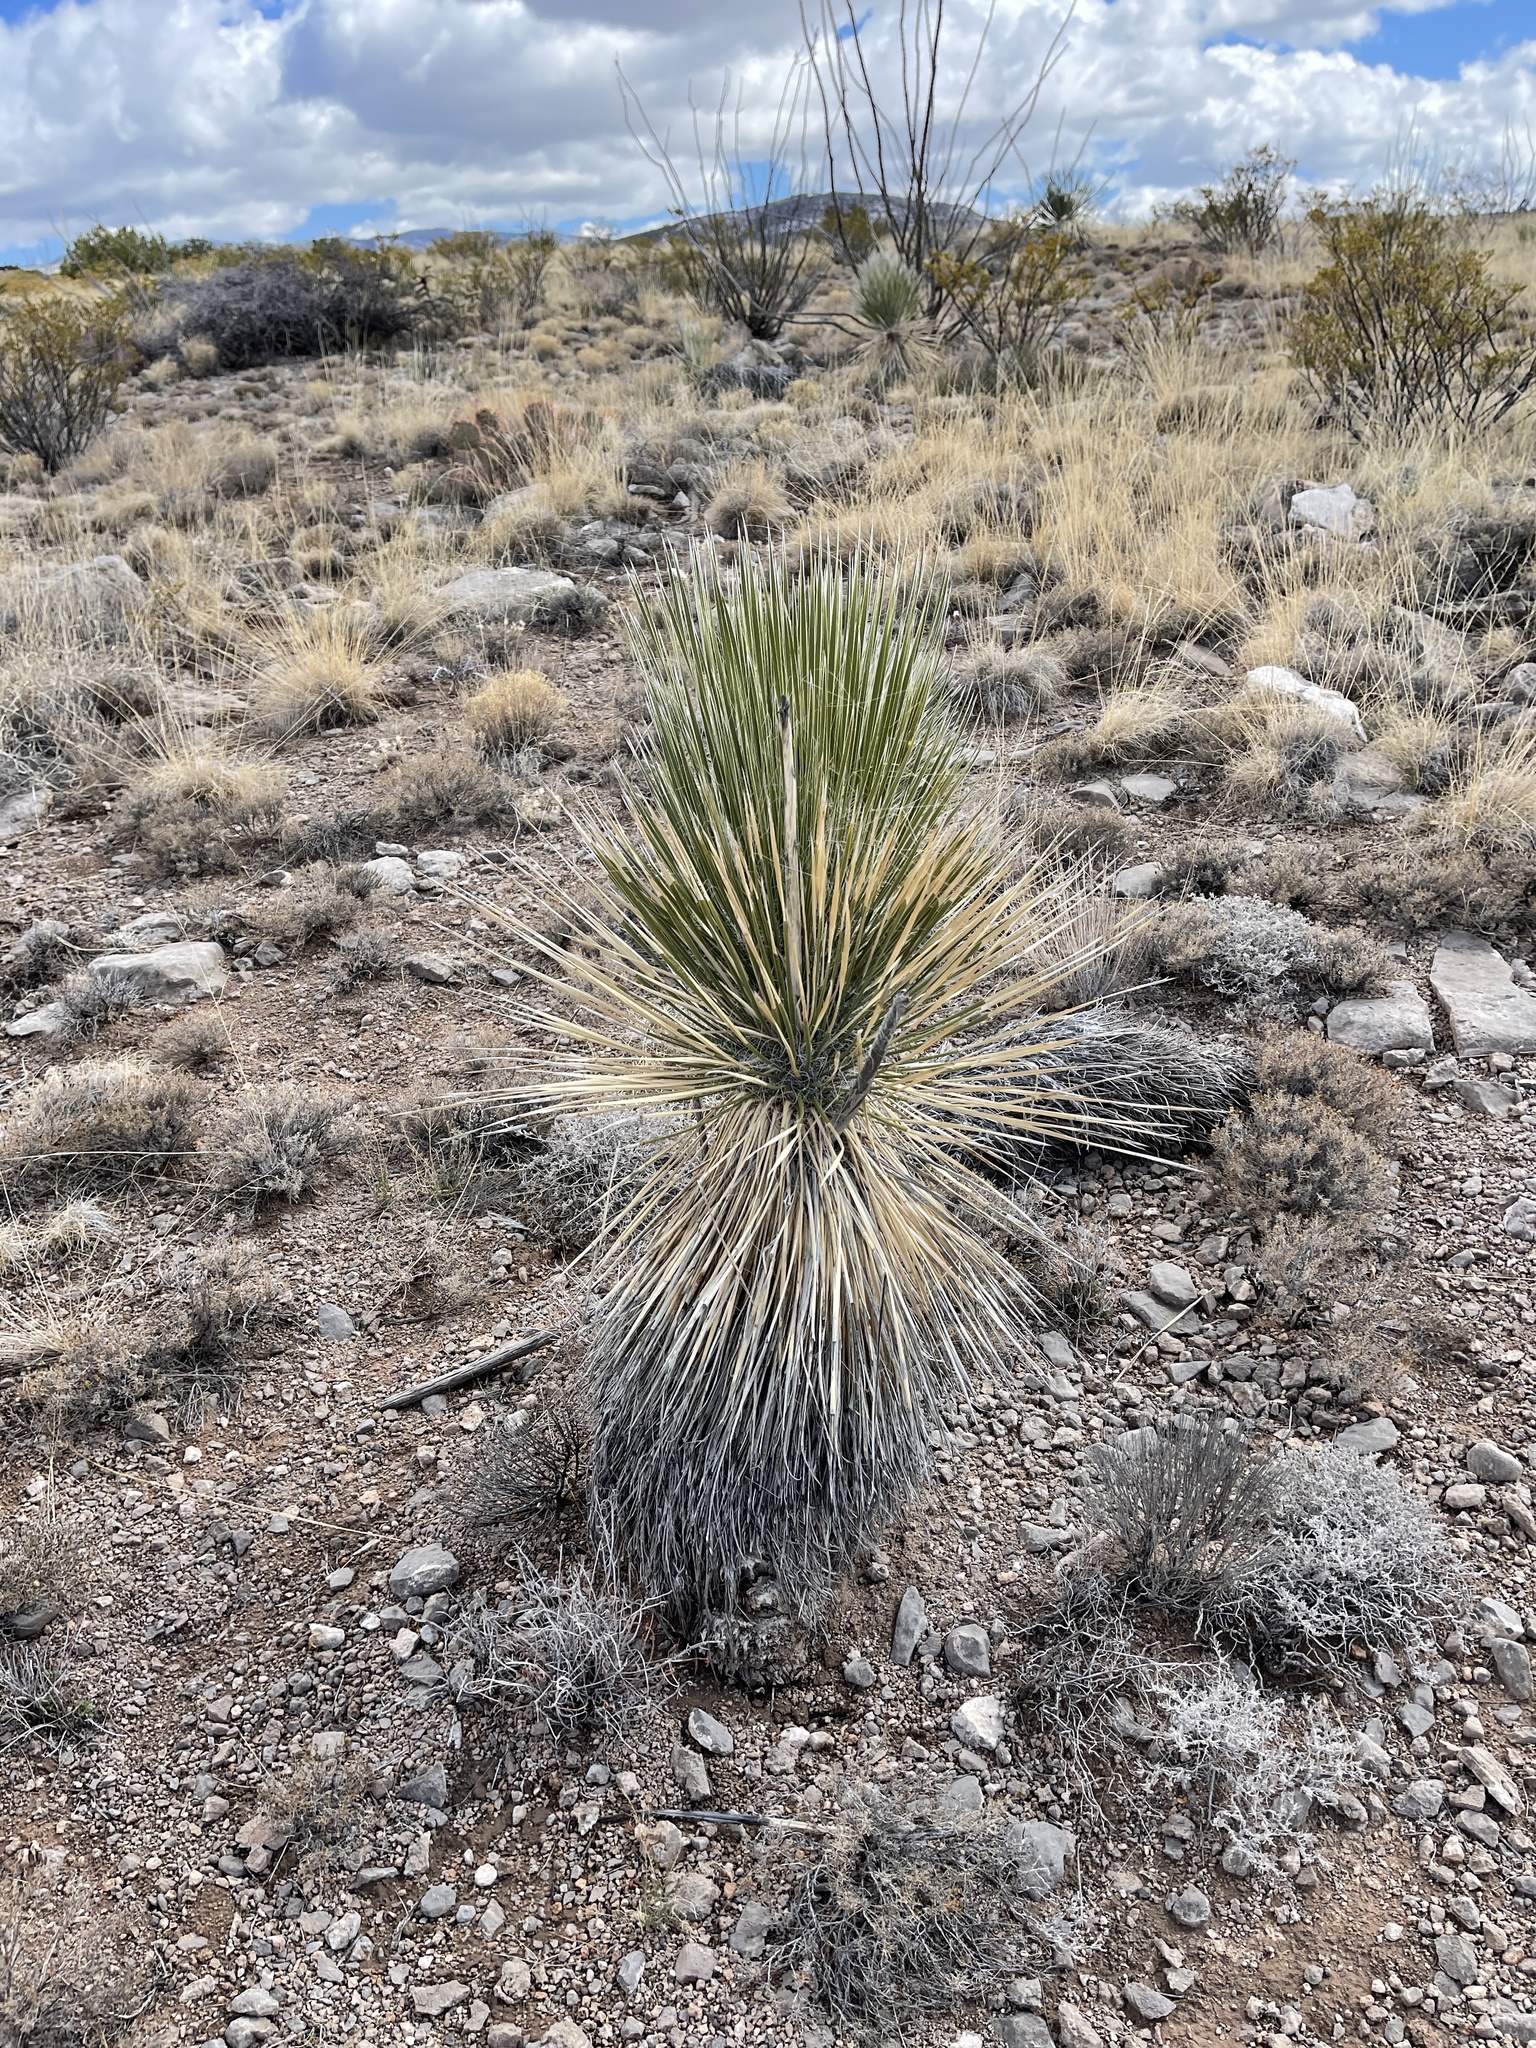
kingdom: Plantae
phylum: Tracheophyta
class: Liliopsida
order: Asparagales
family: Asparagaceae
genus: Yucca
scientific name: Yucca elata
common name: Palmella
